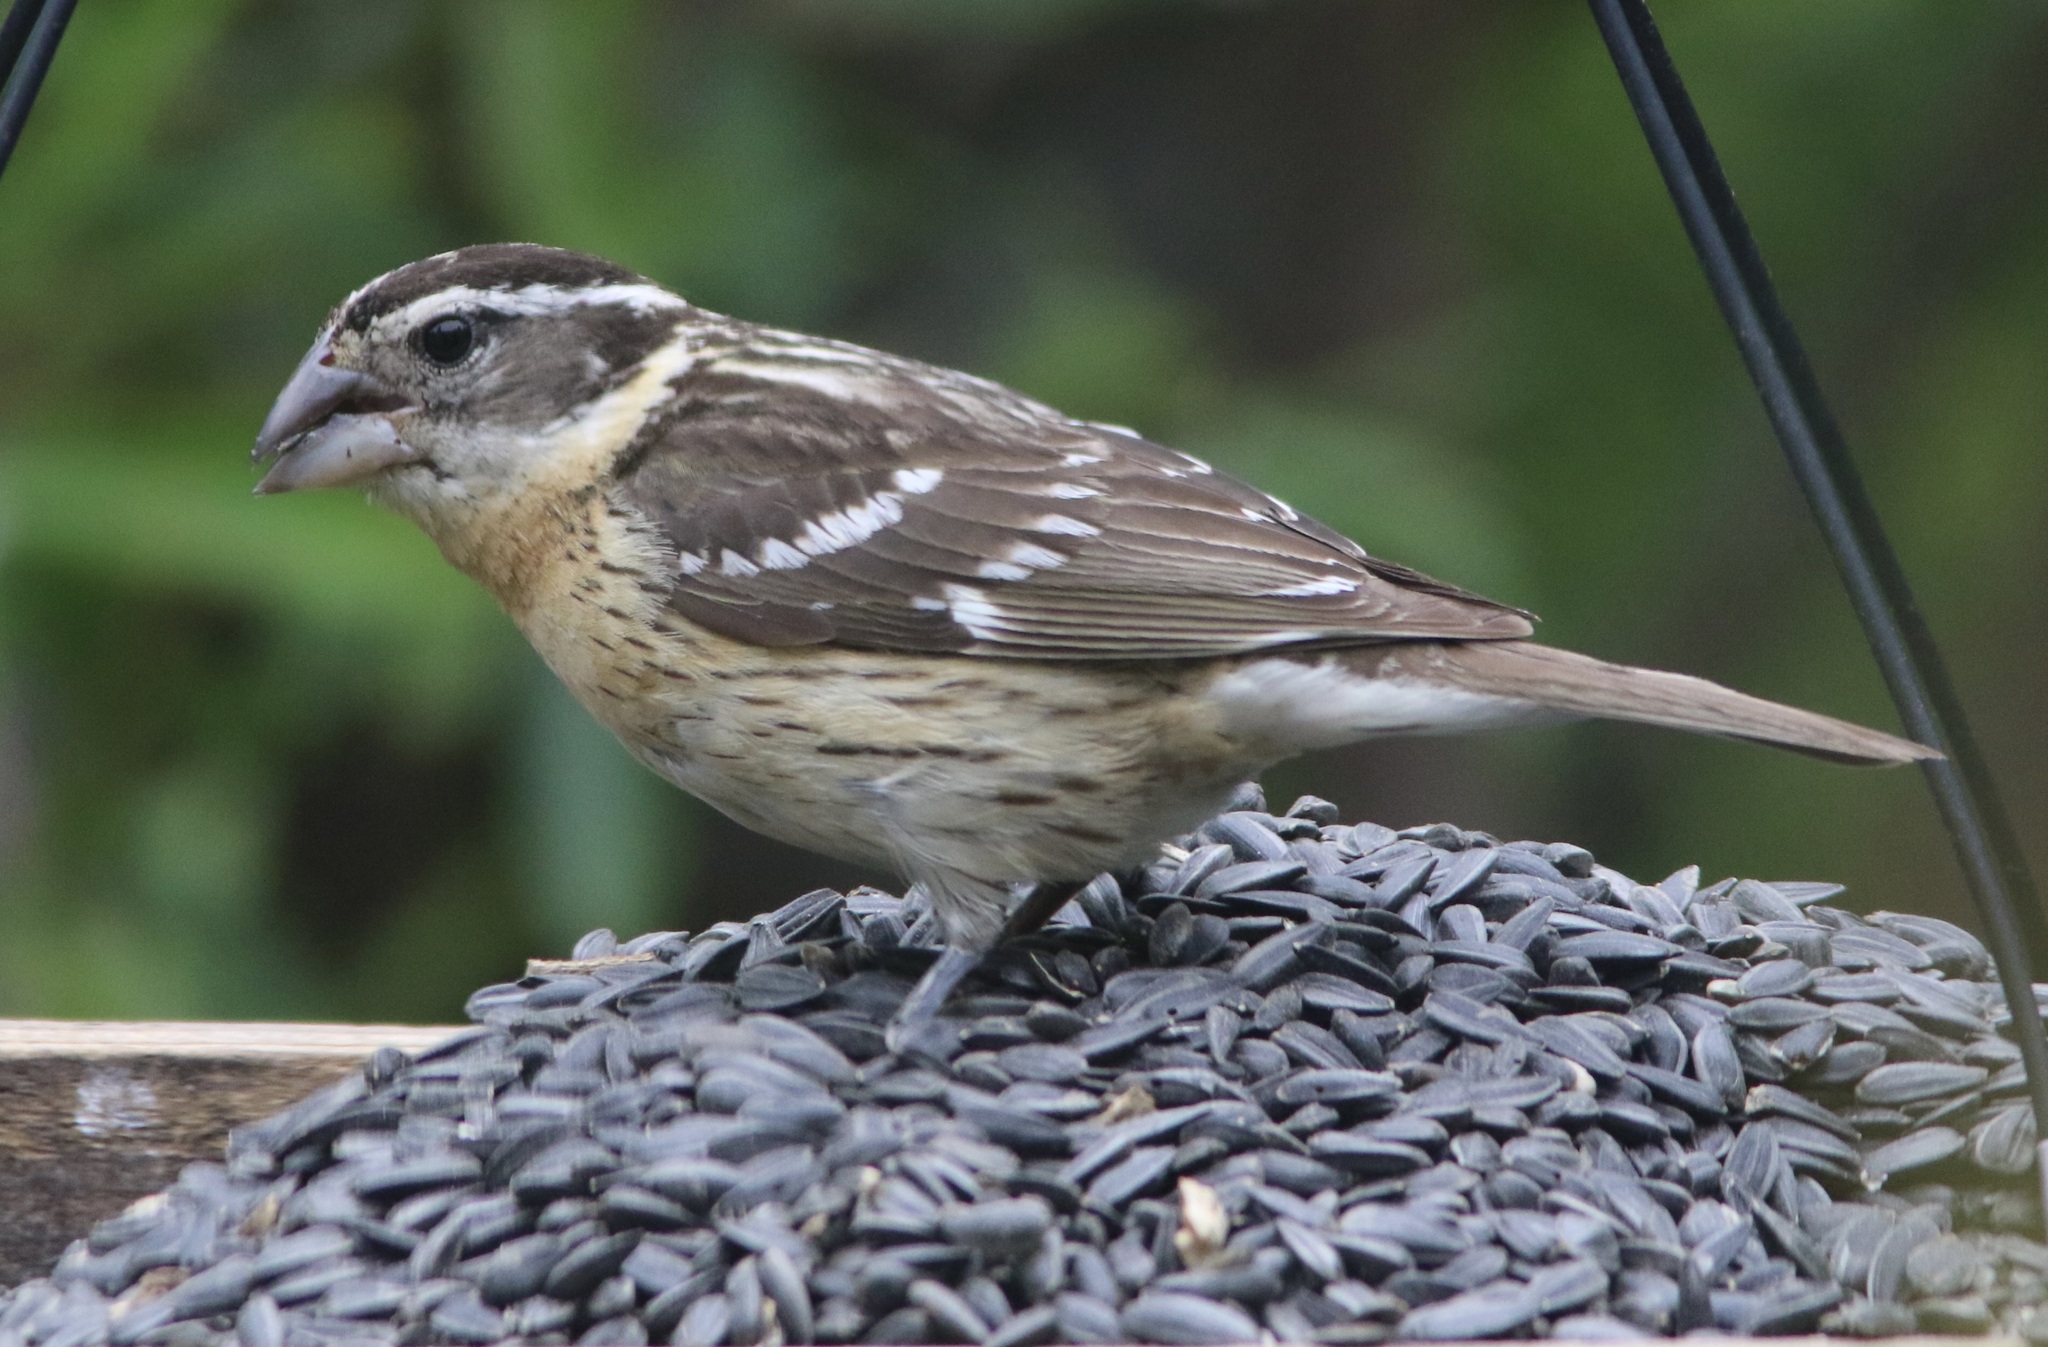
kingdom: Animalia
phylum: Chordata
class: Aves
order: Passeriformes
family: Cardinalidae
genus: Pheucticus
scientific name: Pheucticus melanocephalus
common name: Black-headed grosbeak
